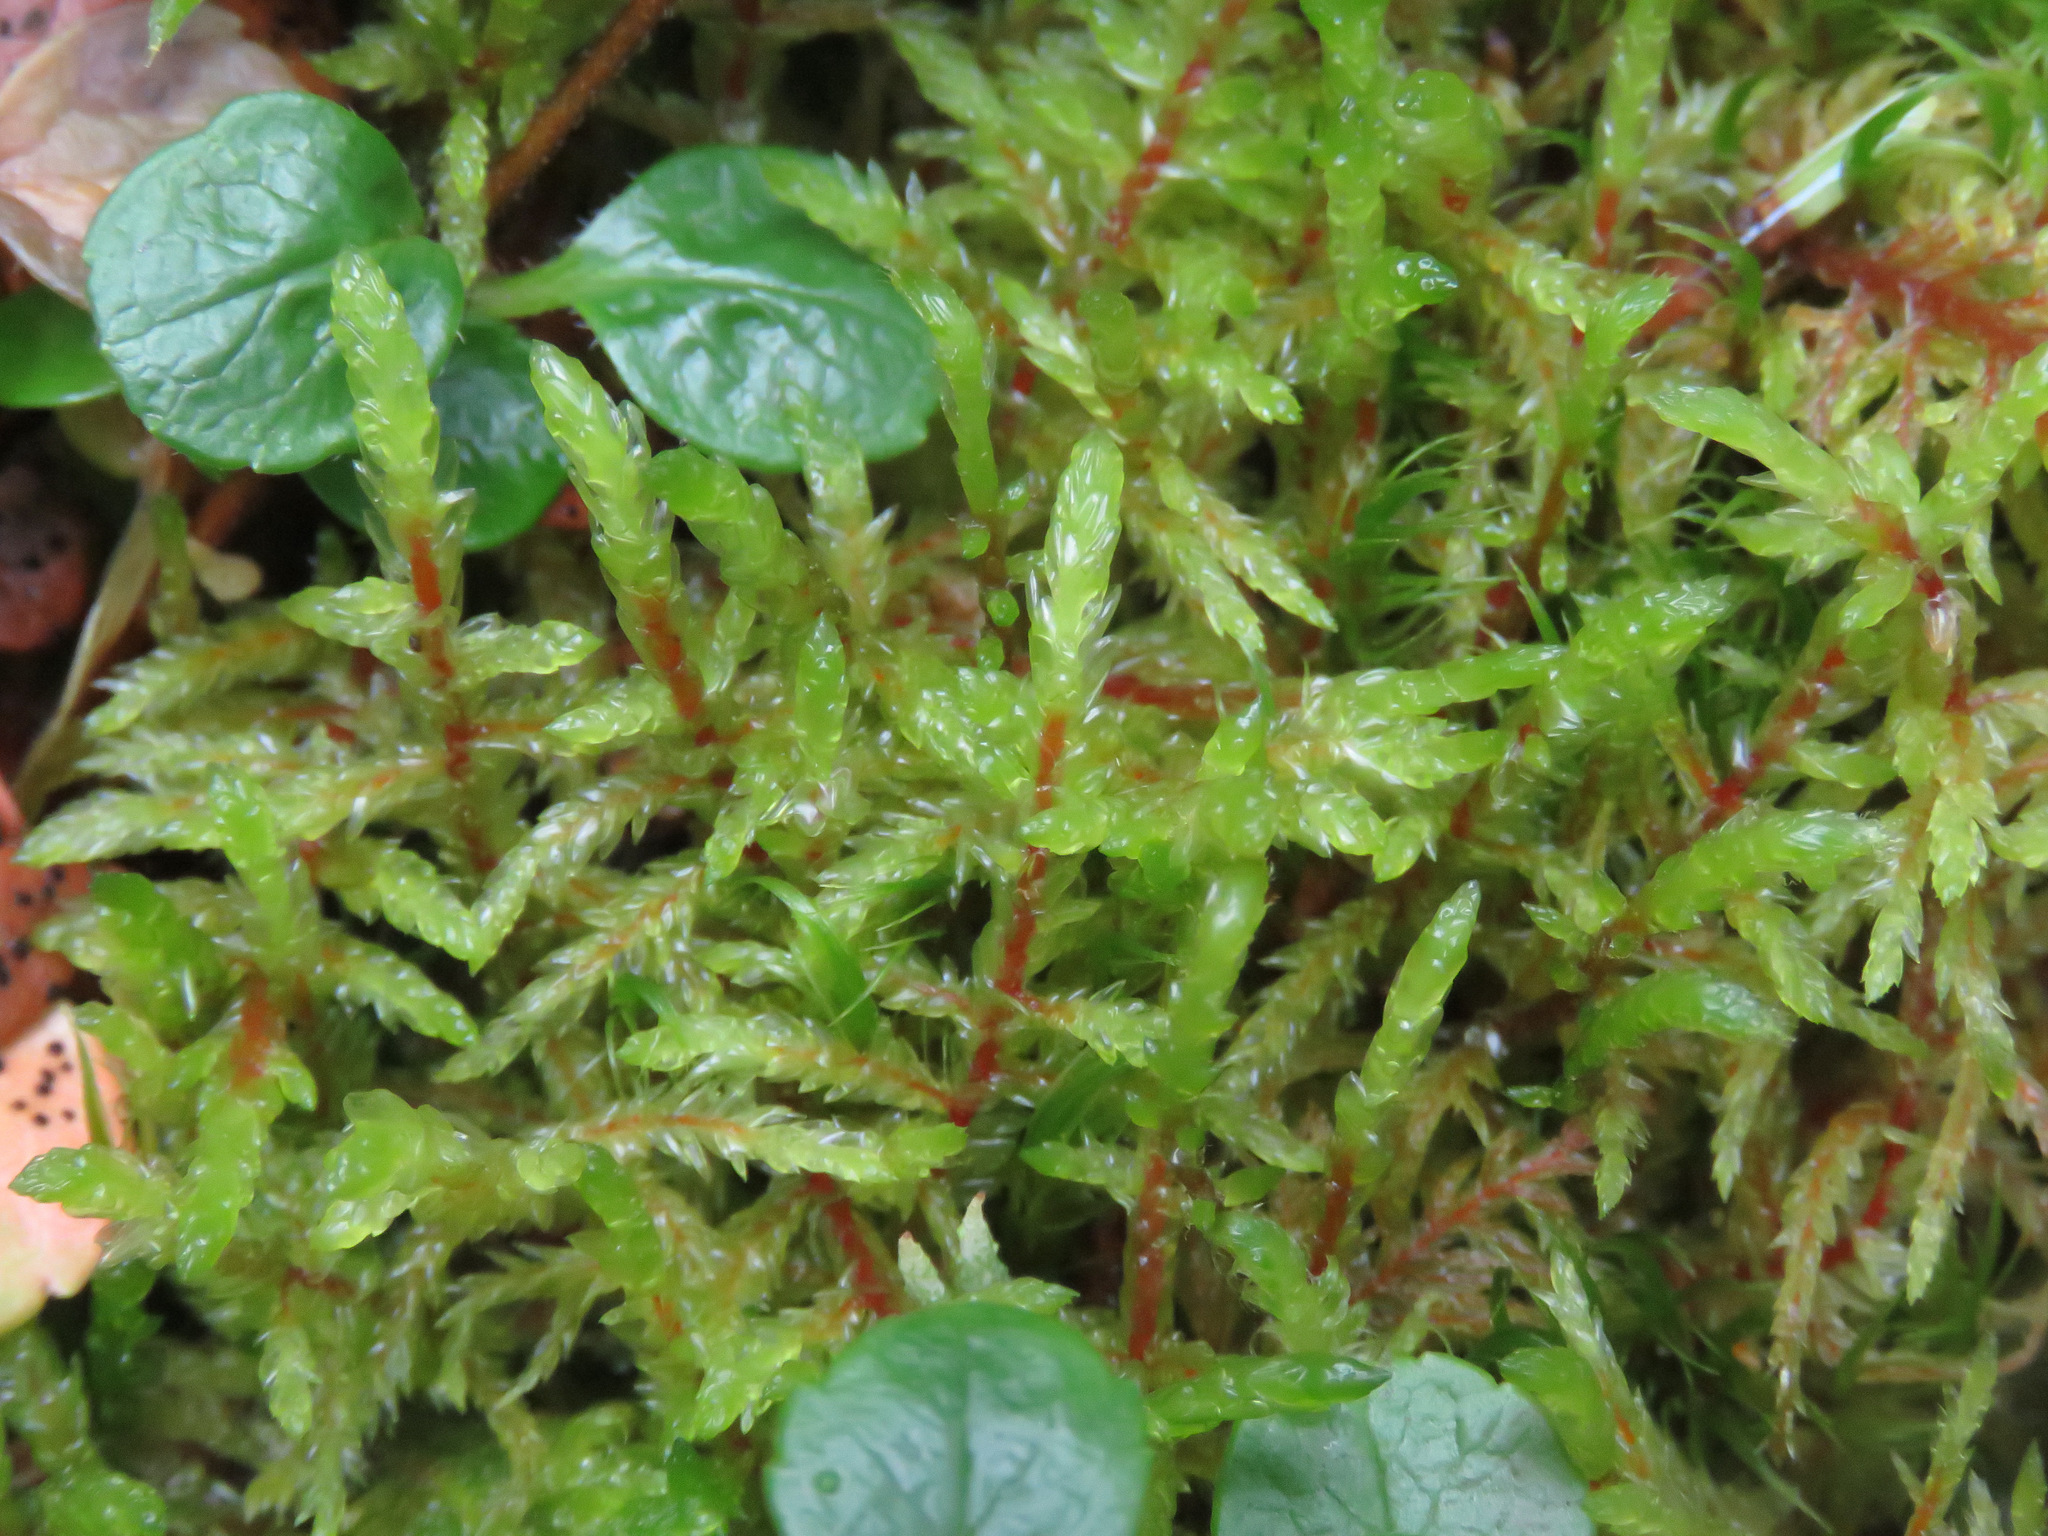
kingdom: Plantae
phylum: Bryophyta
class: Bryopsida
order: Hypnales
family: Hylocomiaceae
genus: Pleurozium
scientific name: Pleurozium schreberi
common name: Red-stemmed feather moss
